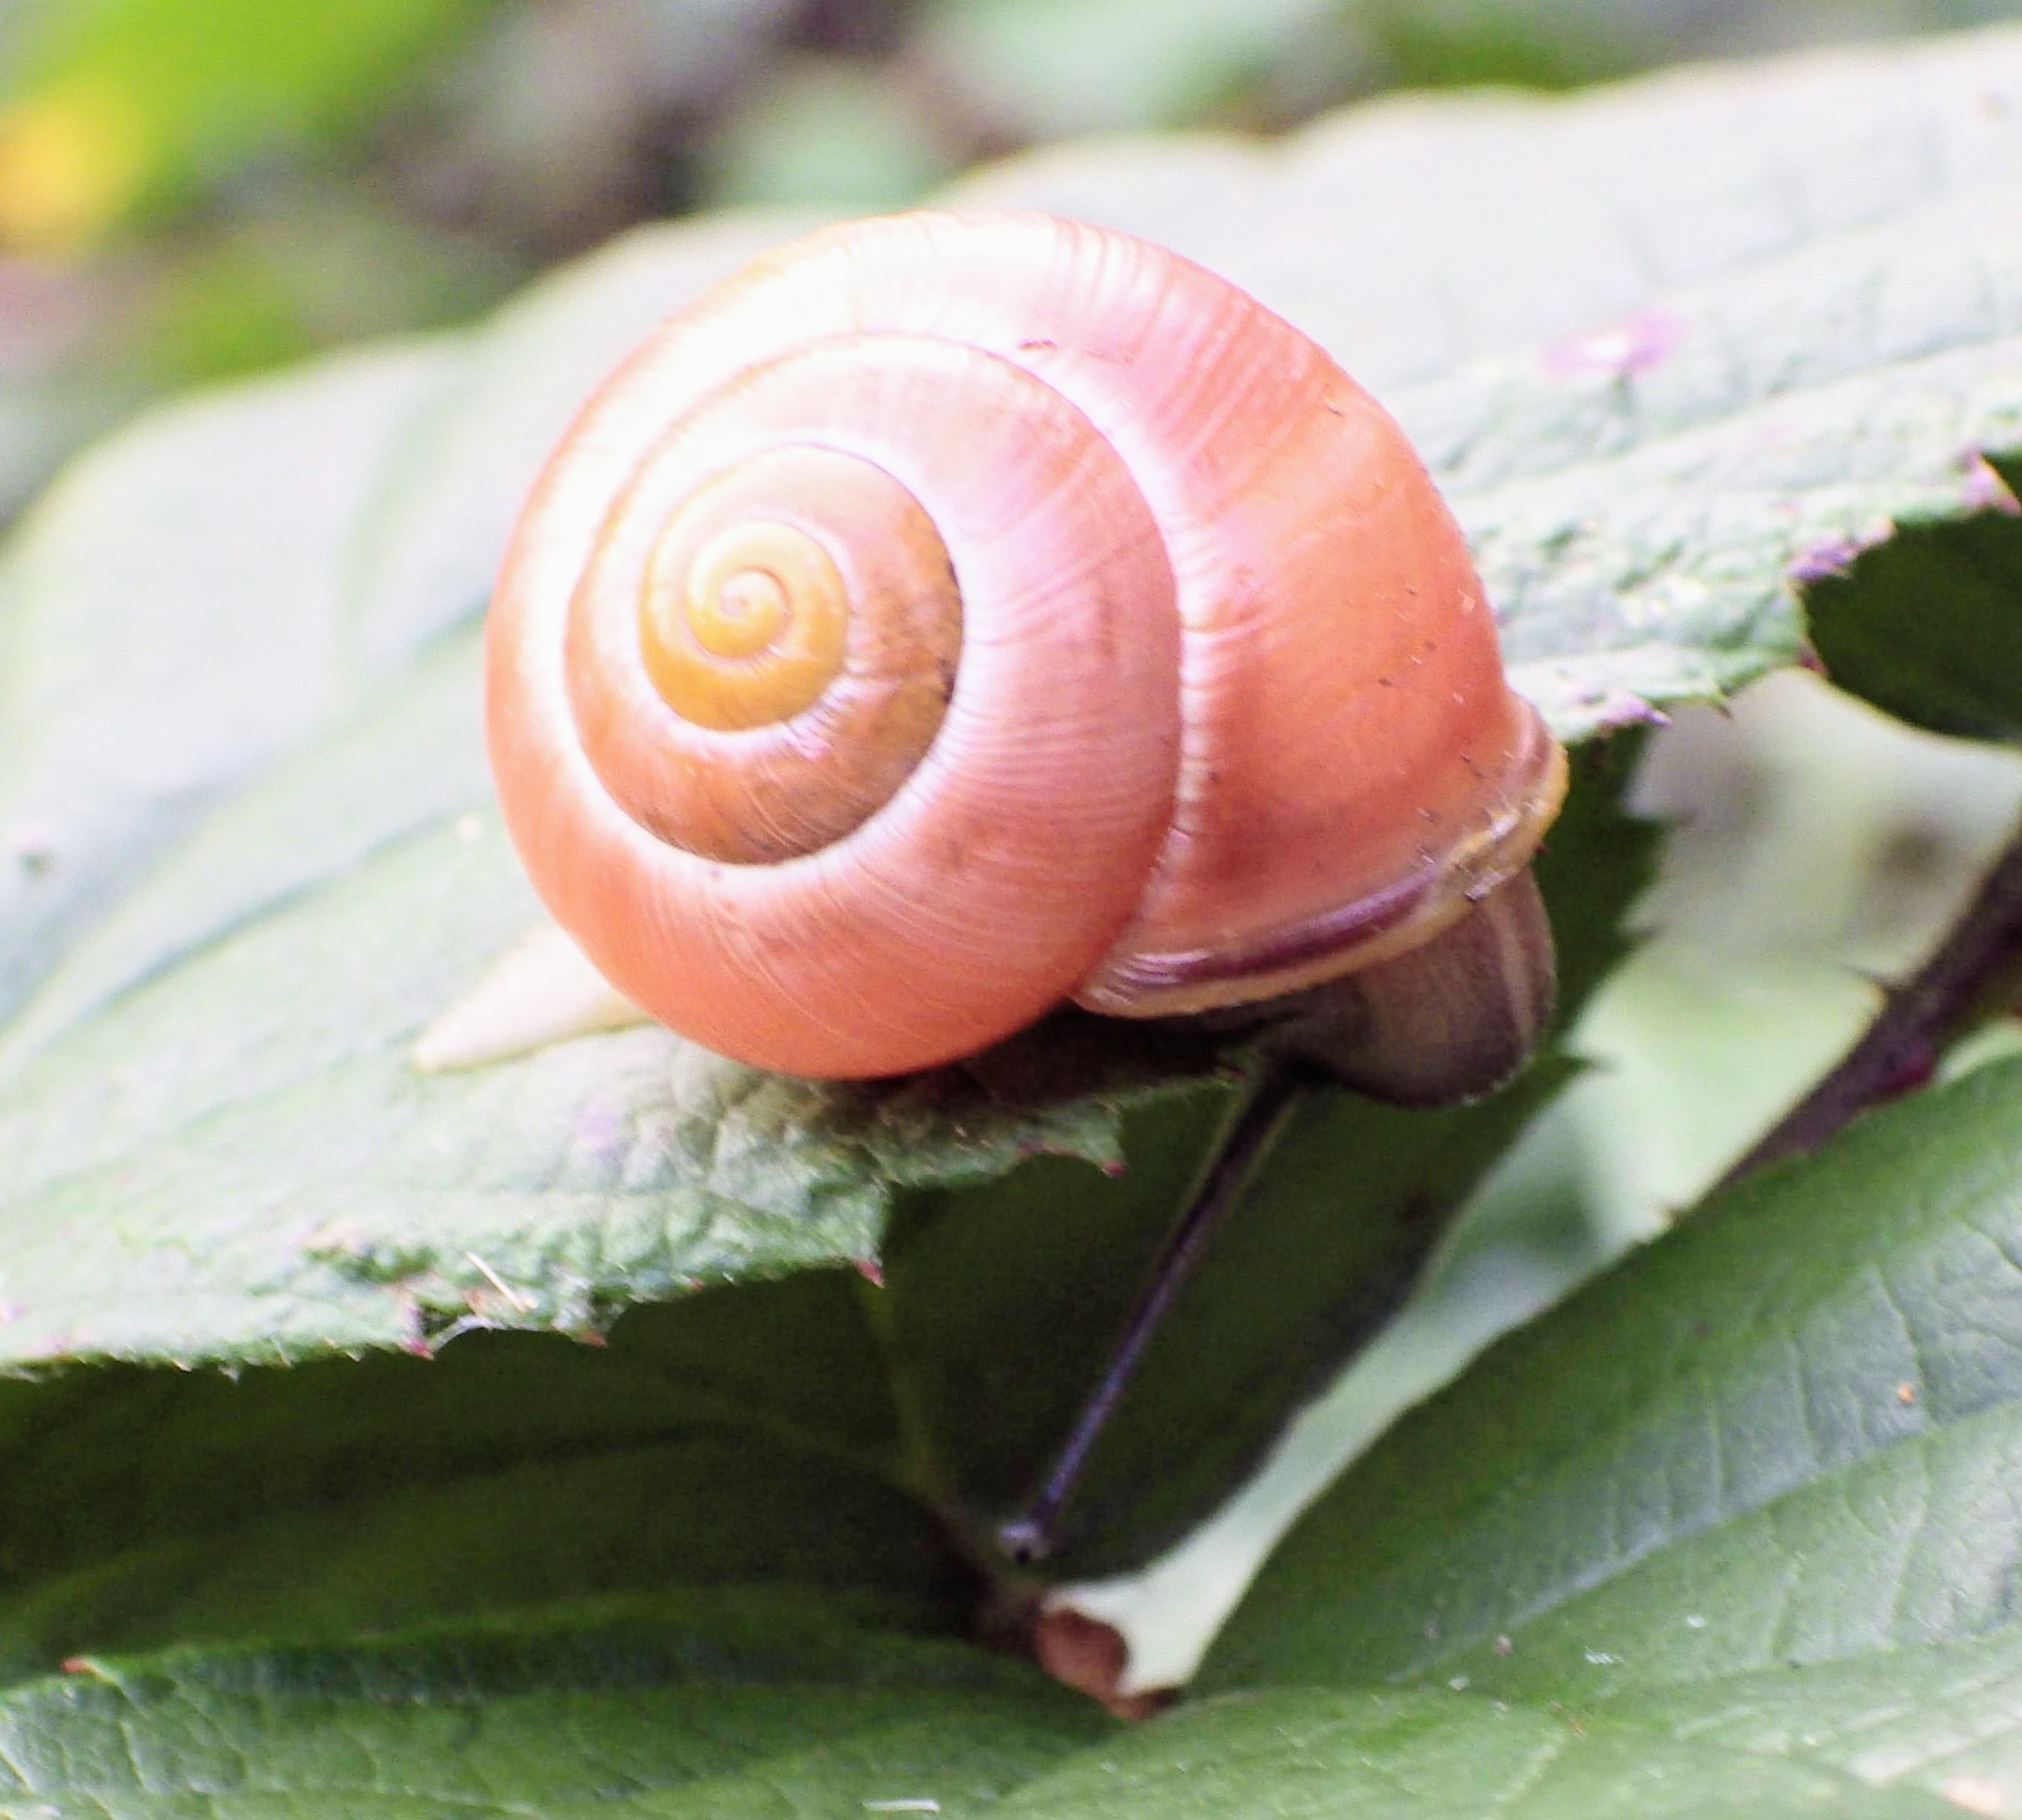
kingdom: Animalia
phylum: Mollusca
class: Gastropoda
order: Stylommatophora
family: Helicidae
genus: Cepaea
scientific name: Cepaea hortensis
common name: White-lip gardensnail
